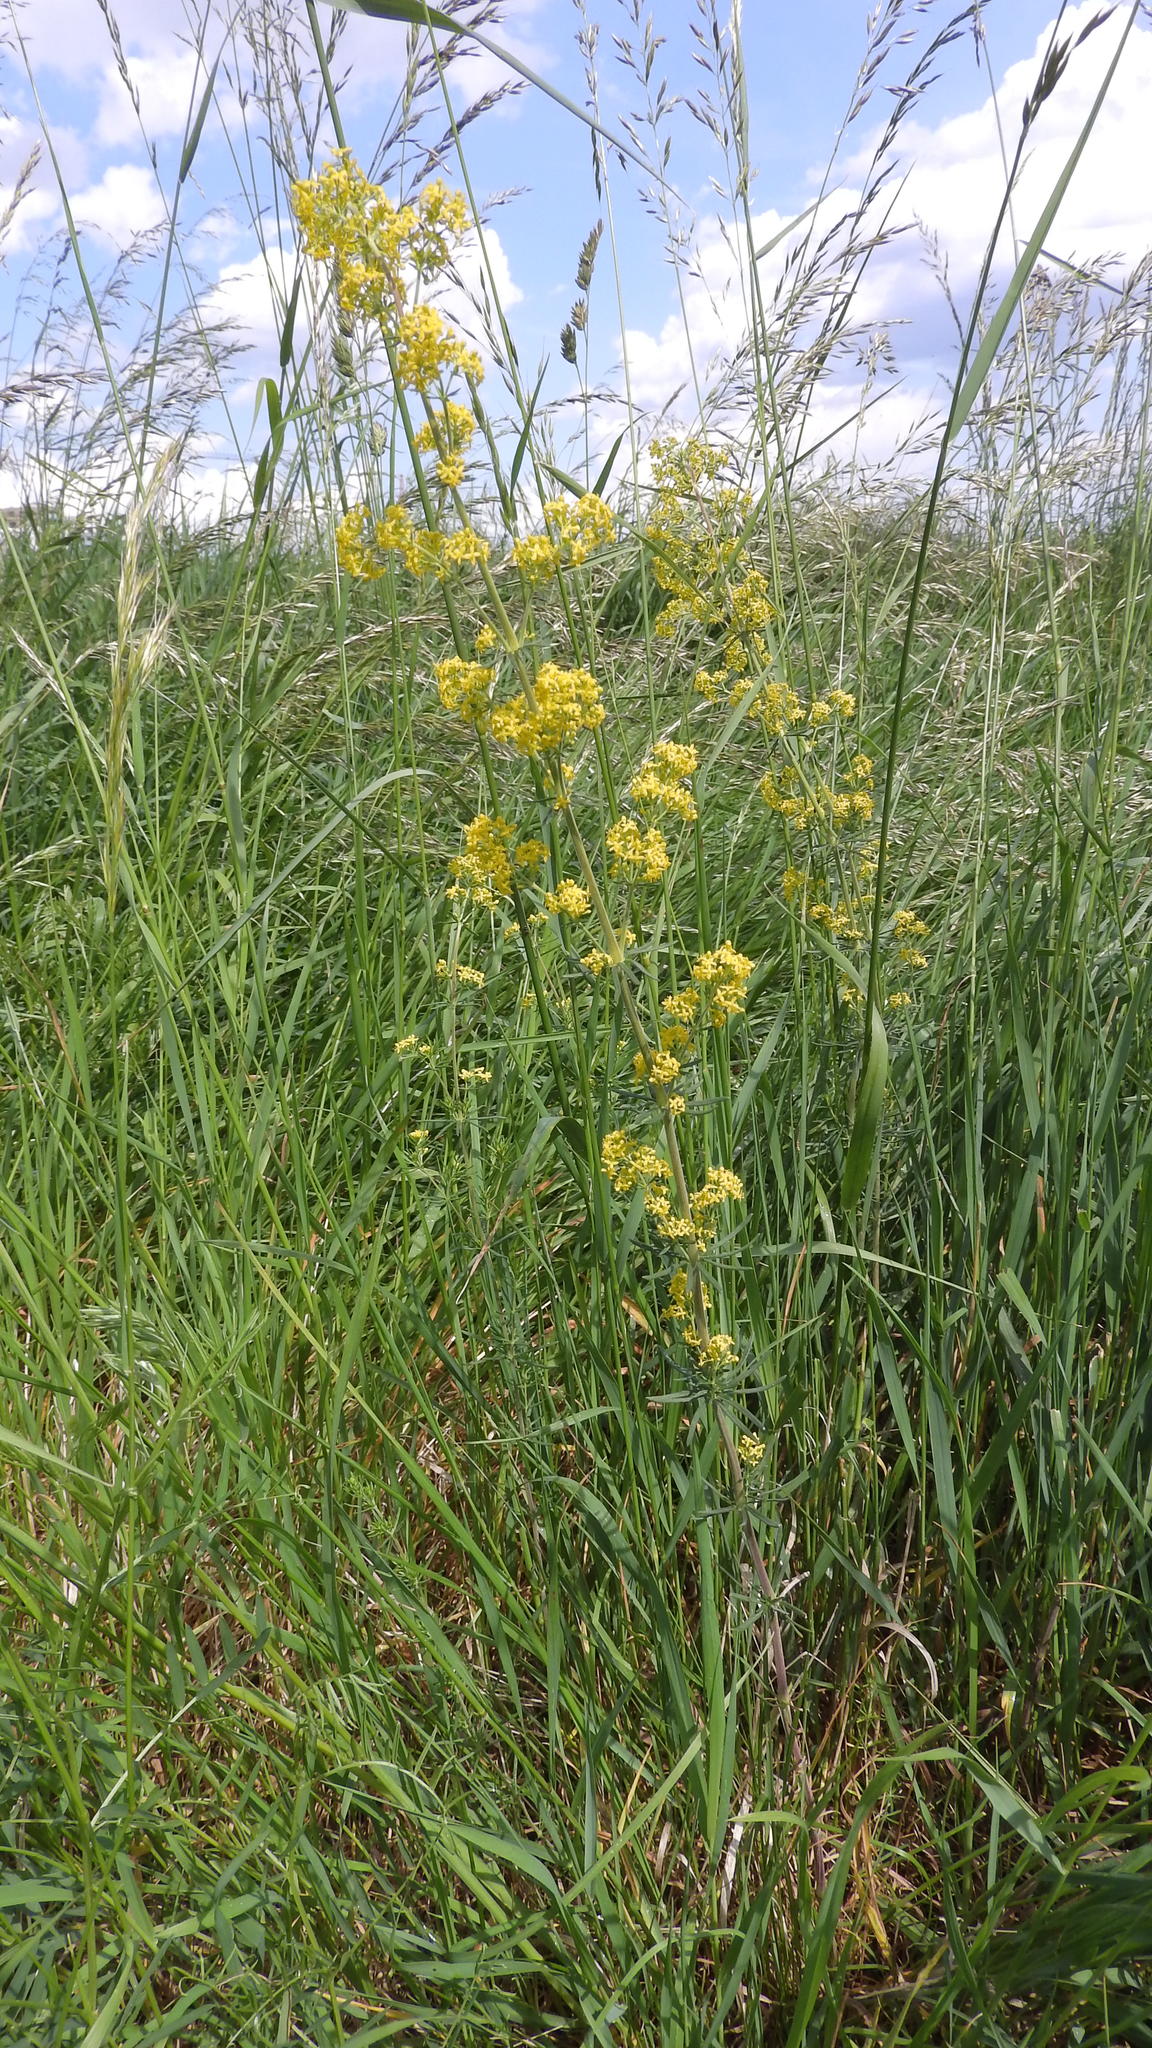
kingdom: Plantae
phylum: Tracheophyta
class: Magnoliopsida
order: Gentianales
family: Rubiaceae
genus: Galium
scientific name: Galium verum
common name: Lady's bedstraw
